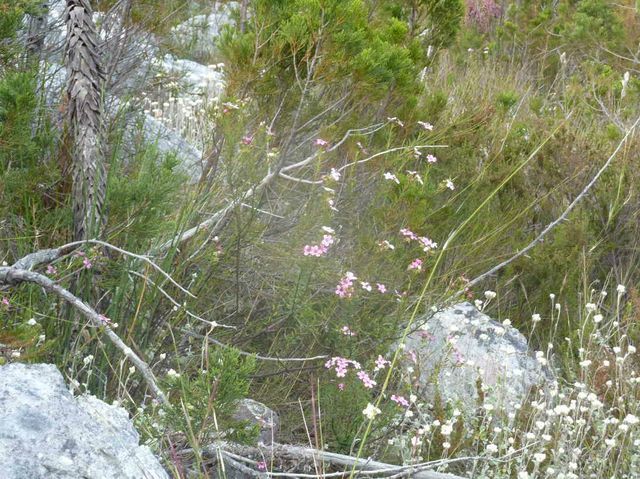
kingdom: Plantae
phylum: Tracheophyta
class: Magnoliopsida
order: Sapindales
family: Rutaceae
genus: Adenandra
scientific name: Adenandra fragrans
